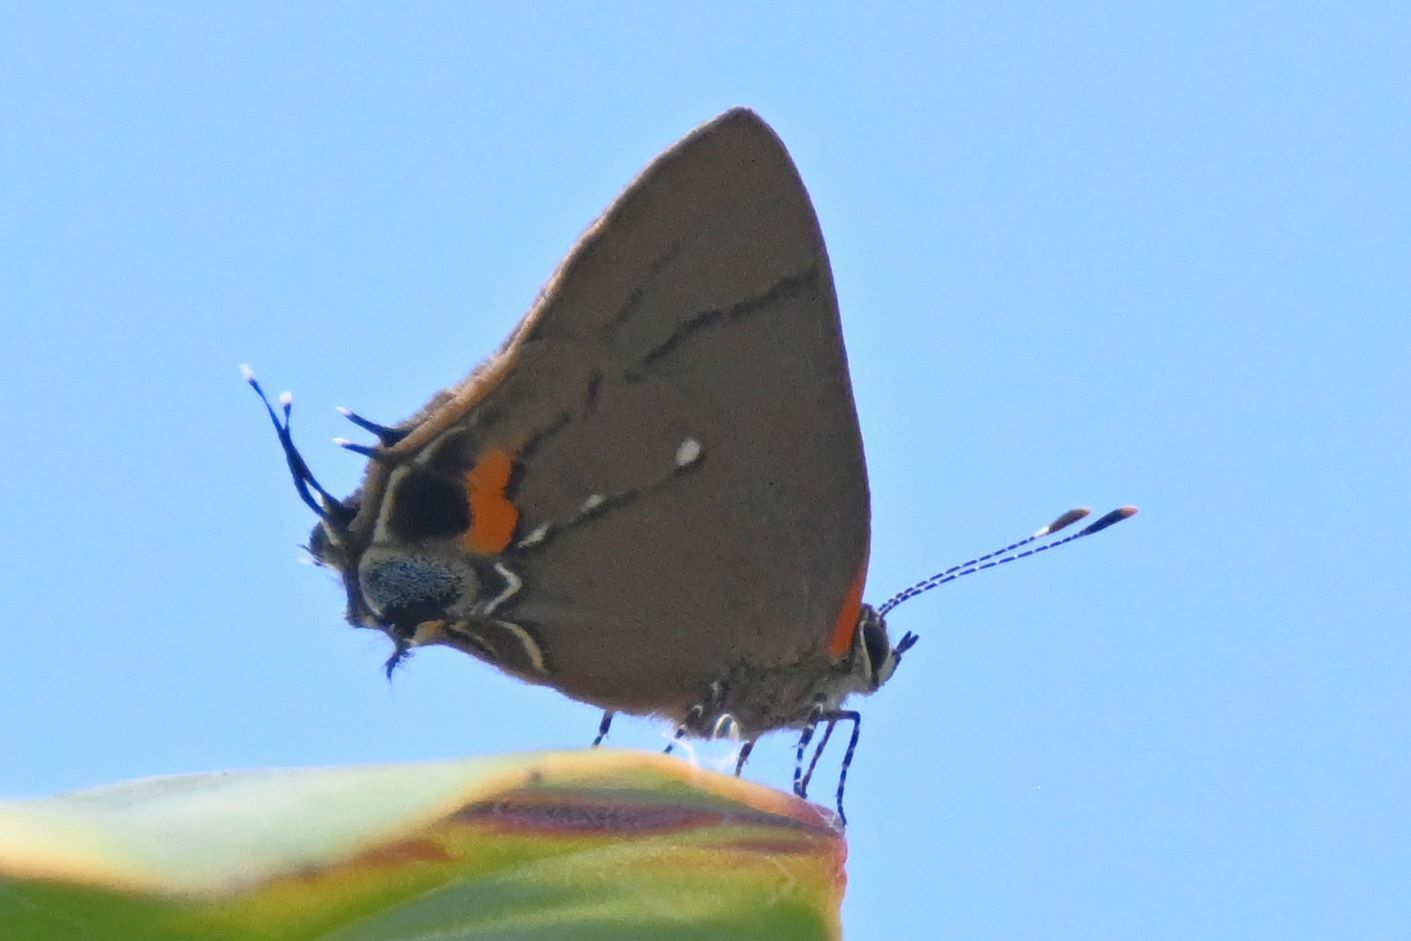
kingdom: Animalia
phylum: Arthropoda
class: Insecta
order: Lepidoptera
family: Lycaenidae
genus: Thecla
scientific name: Thecla angelia
